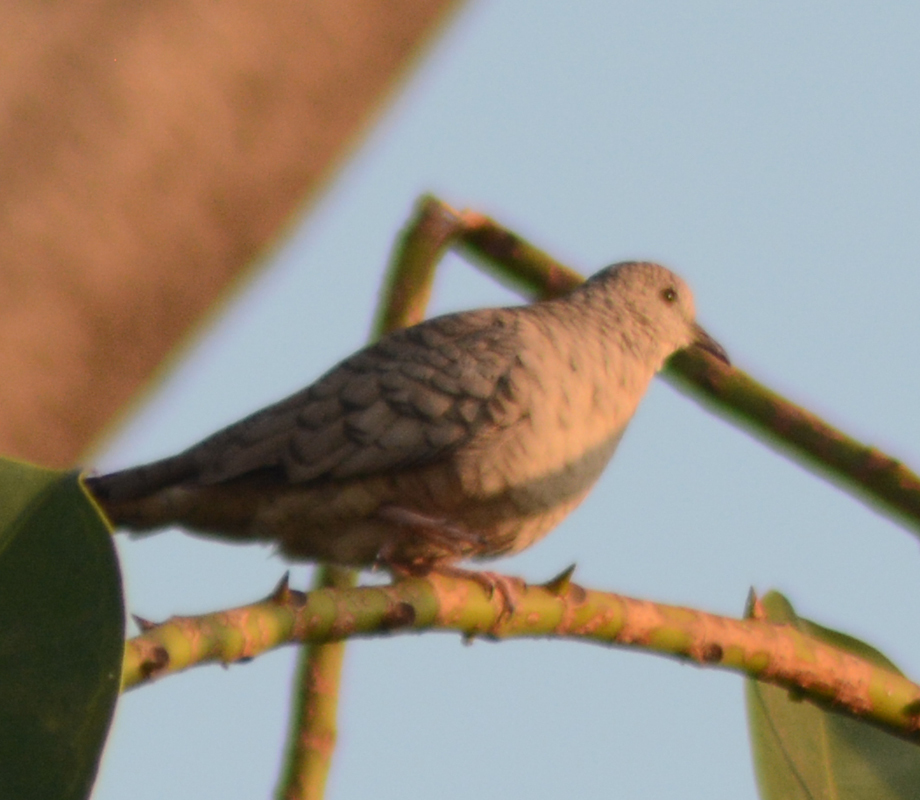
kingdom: Animalia
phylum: Chordata
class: Aves
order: Columbiformes
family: Columbidae
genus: Columbina
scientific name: Columbina inca
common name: Inca dove
